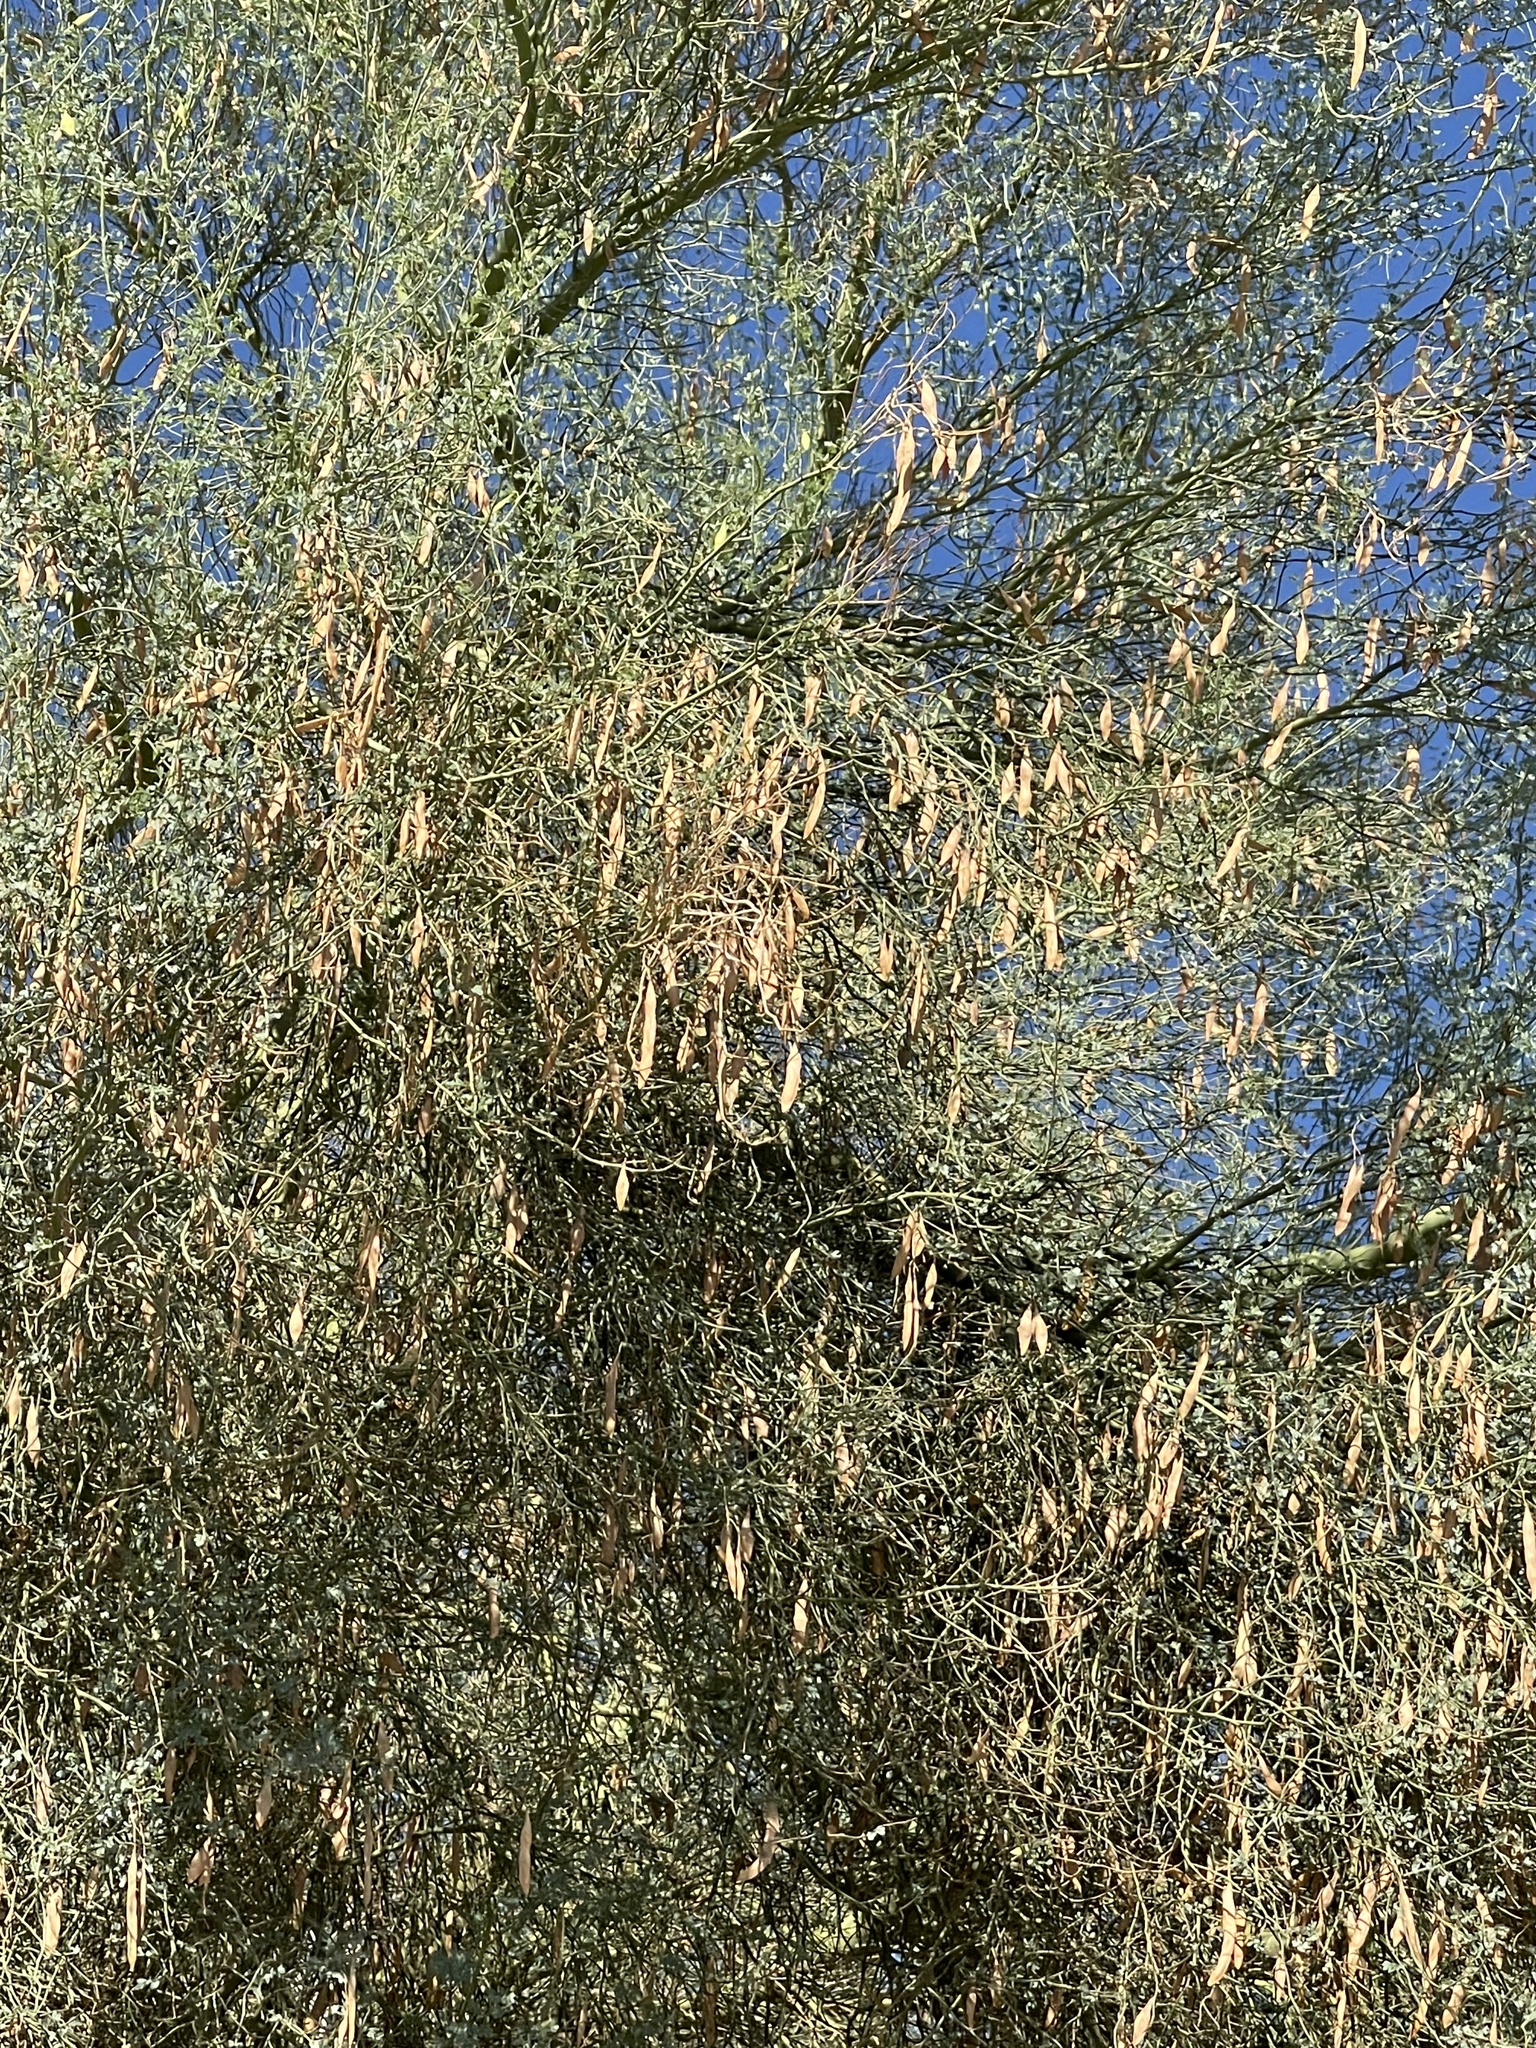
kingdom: Plantae
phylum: Tracheophyta
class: Magnoliopsida
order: Fabales
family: Fabaceae
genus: Parkinsonia
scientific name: Parkinsonia florida
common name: Blue paloverde
